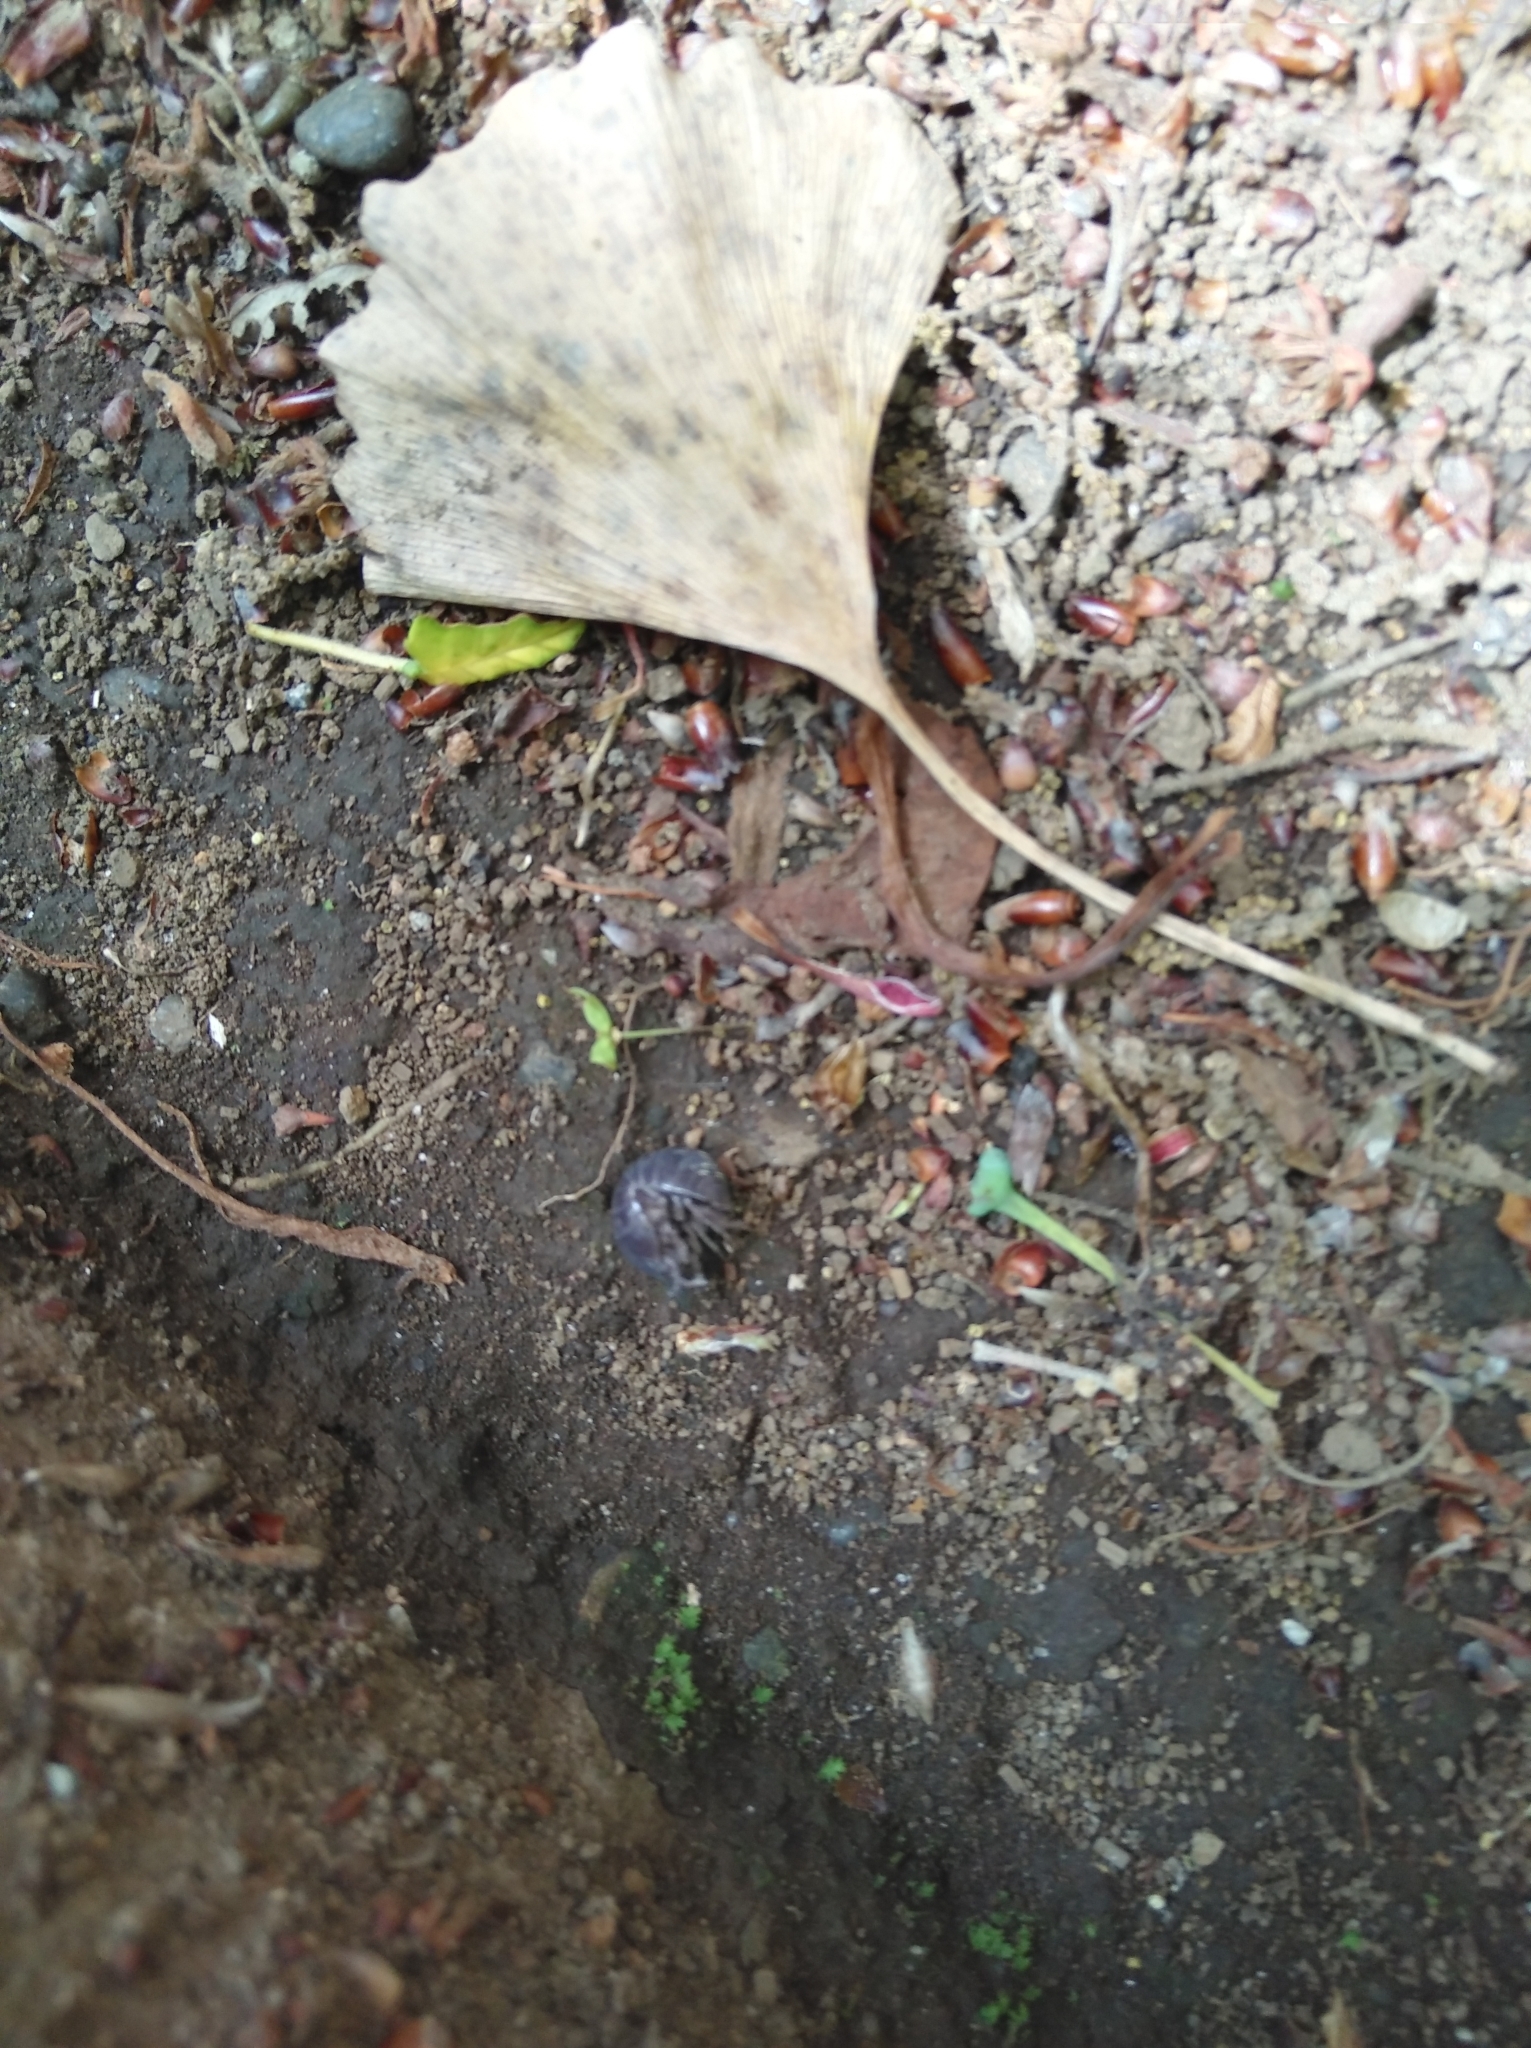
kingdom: Animalia
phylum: Arthropoda
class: Malacostraca
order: Isopoda
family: Armadillidiidae
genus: Armadillidium
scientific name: Armadillidium vulgare
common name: Common pill woodlouse
